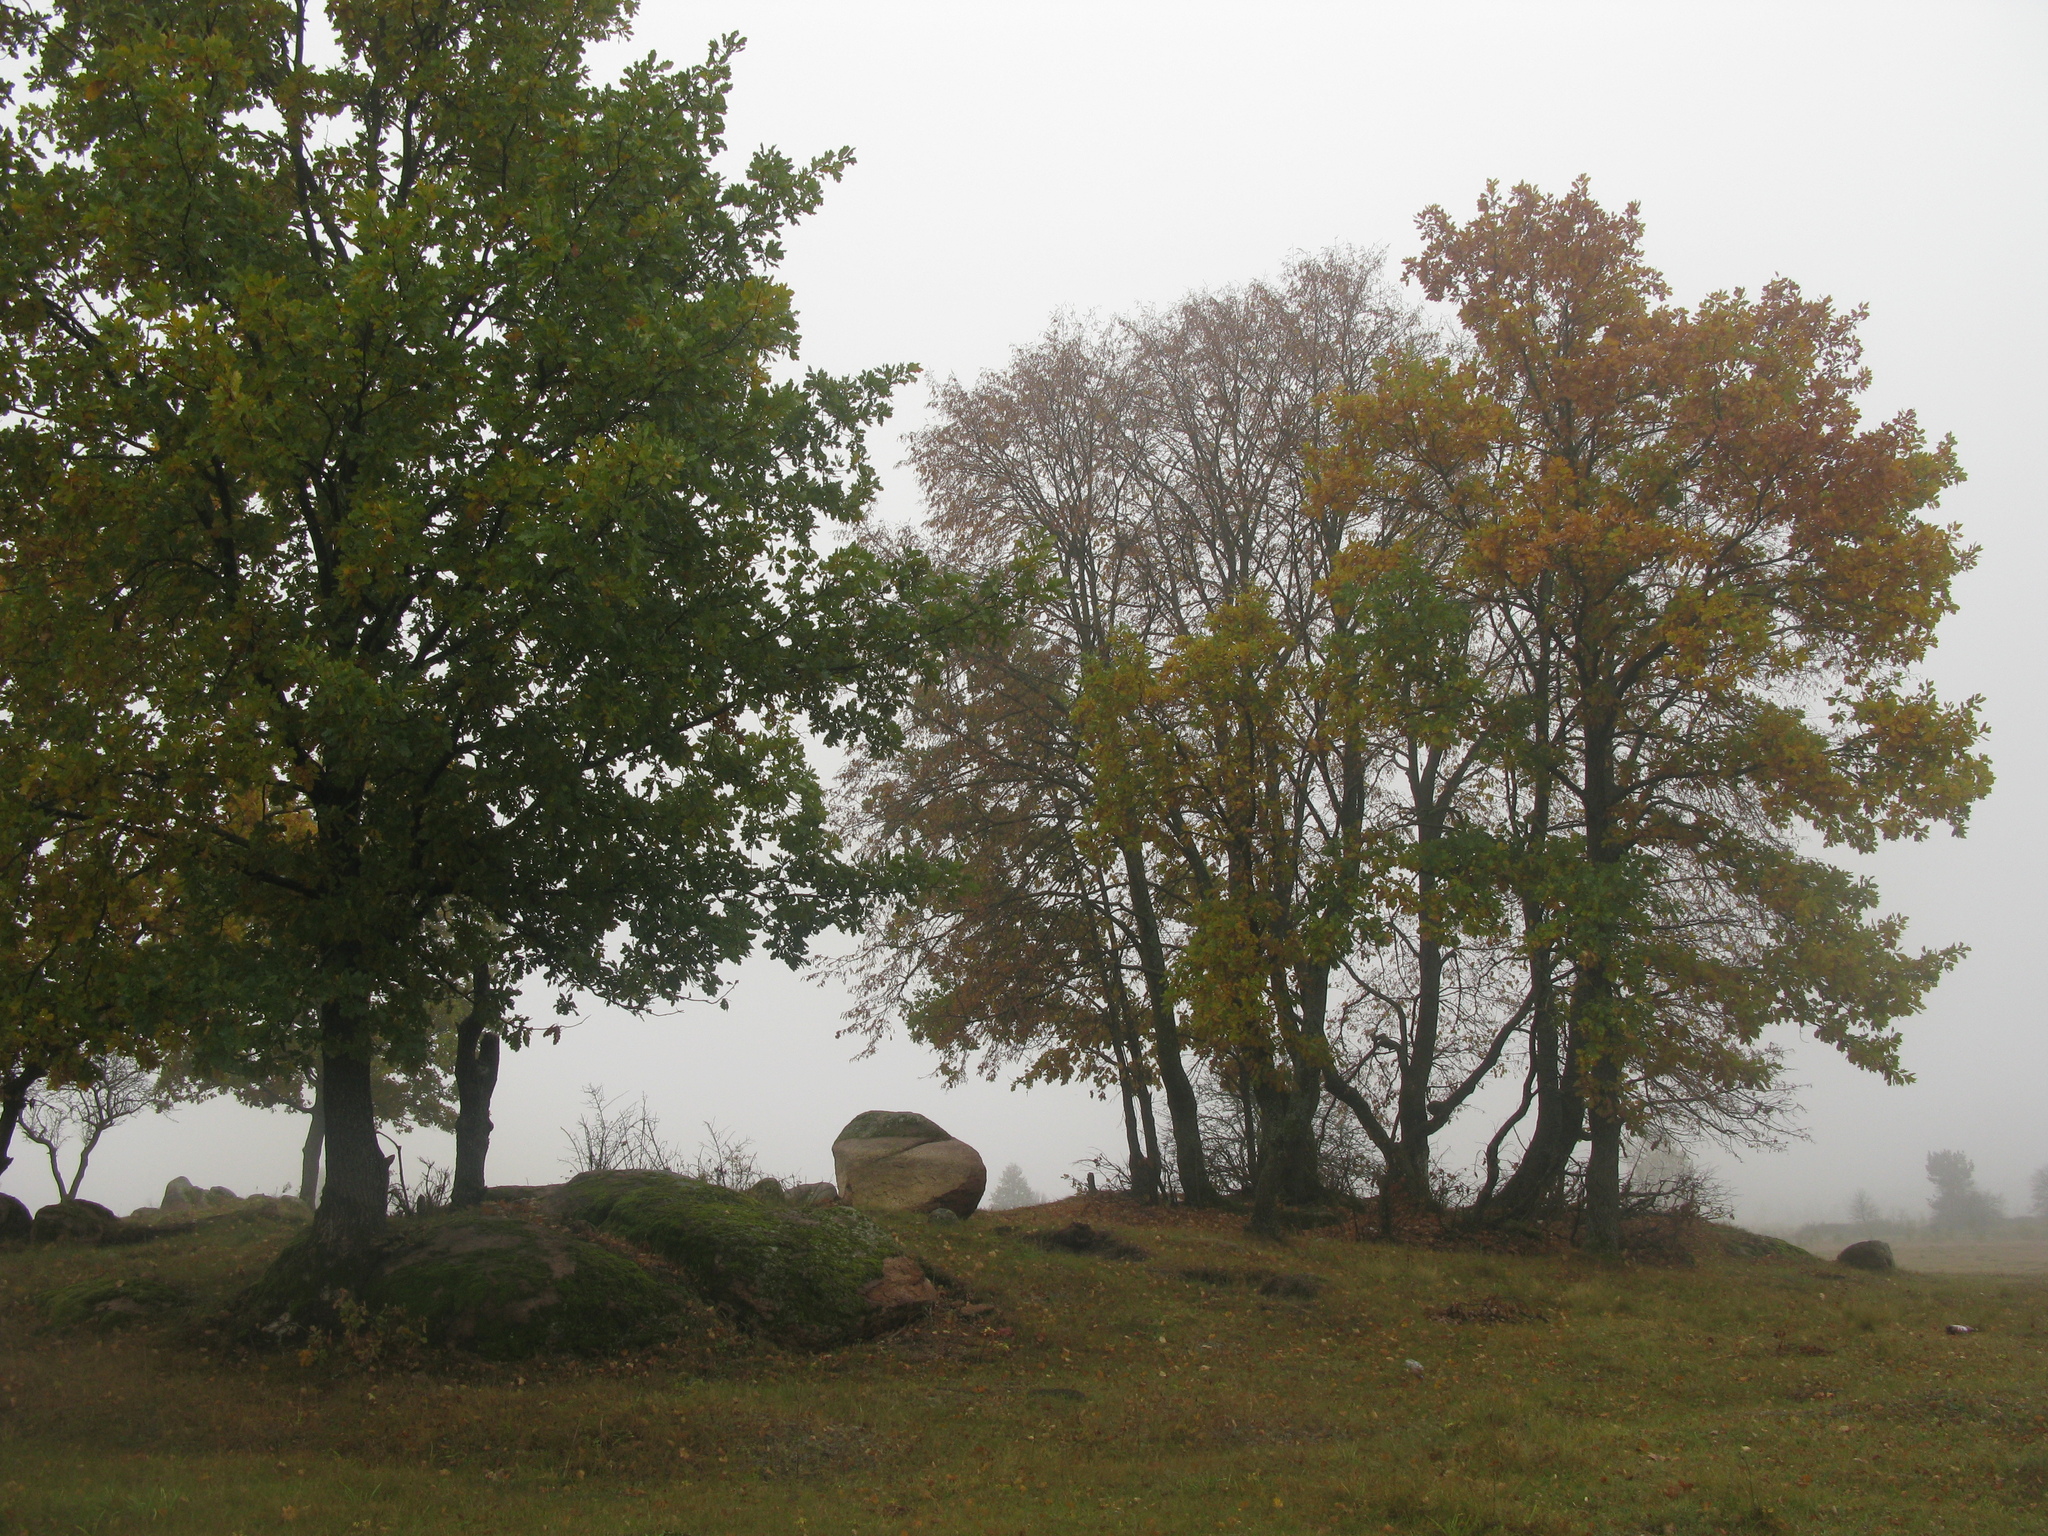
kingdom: Plantae
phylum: Tracheophyta
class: Magnoliopsida
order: Fagales
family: Fagaceae
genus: Quercus
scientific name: Quercus robur
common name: Pedunculate oak
